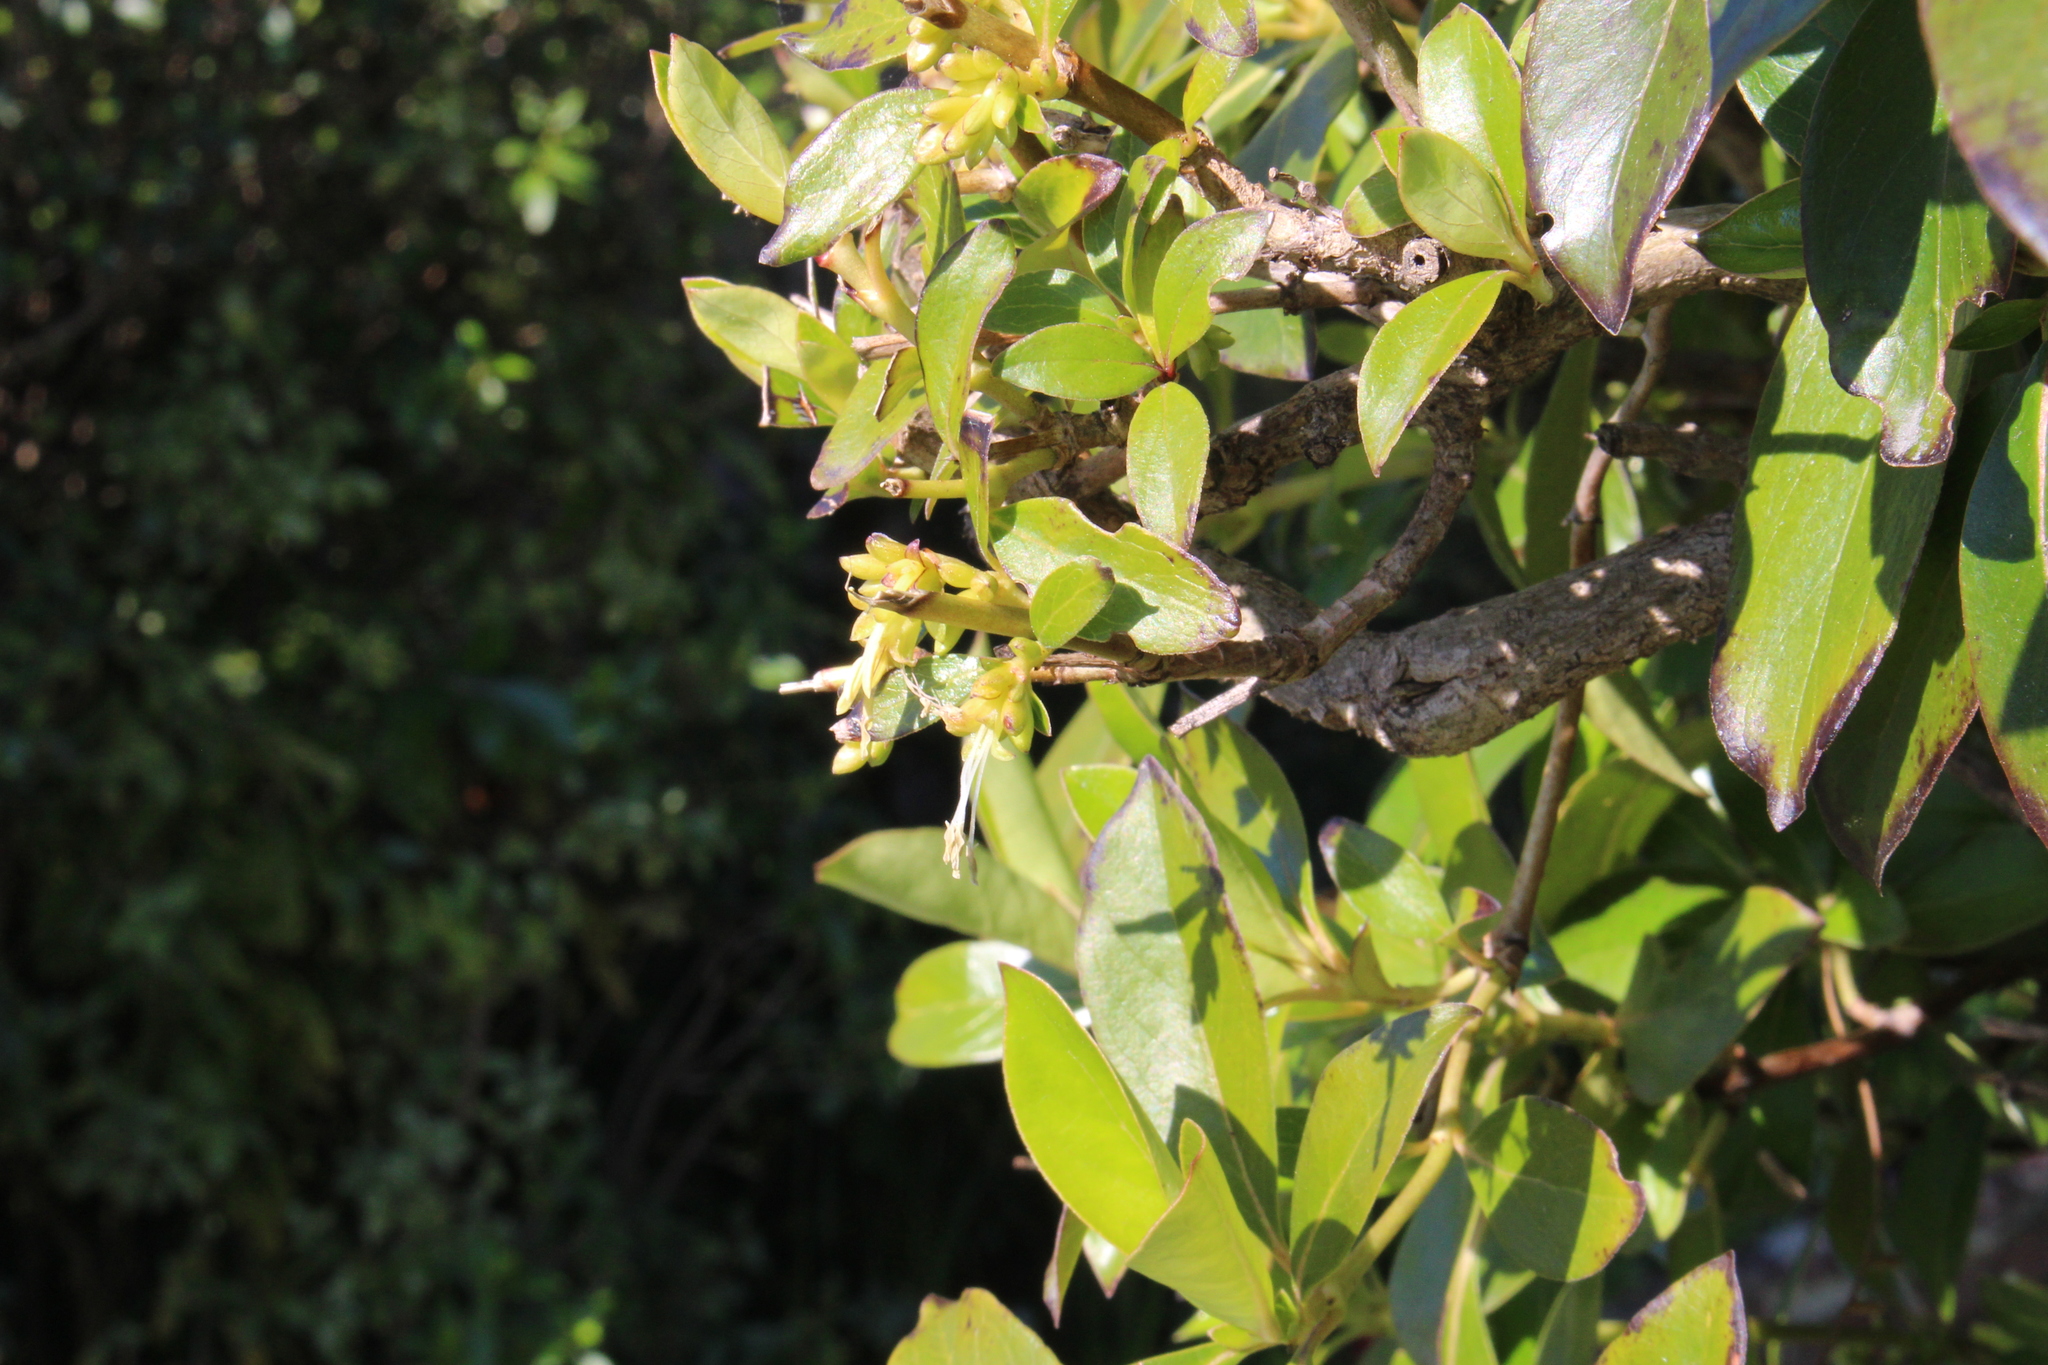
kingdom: Plantae
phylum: Tracheophyta
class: Magnoliopsida
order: Gentianales
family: Rubiaceae
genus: Coprosma
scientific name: Coprosma robusta
